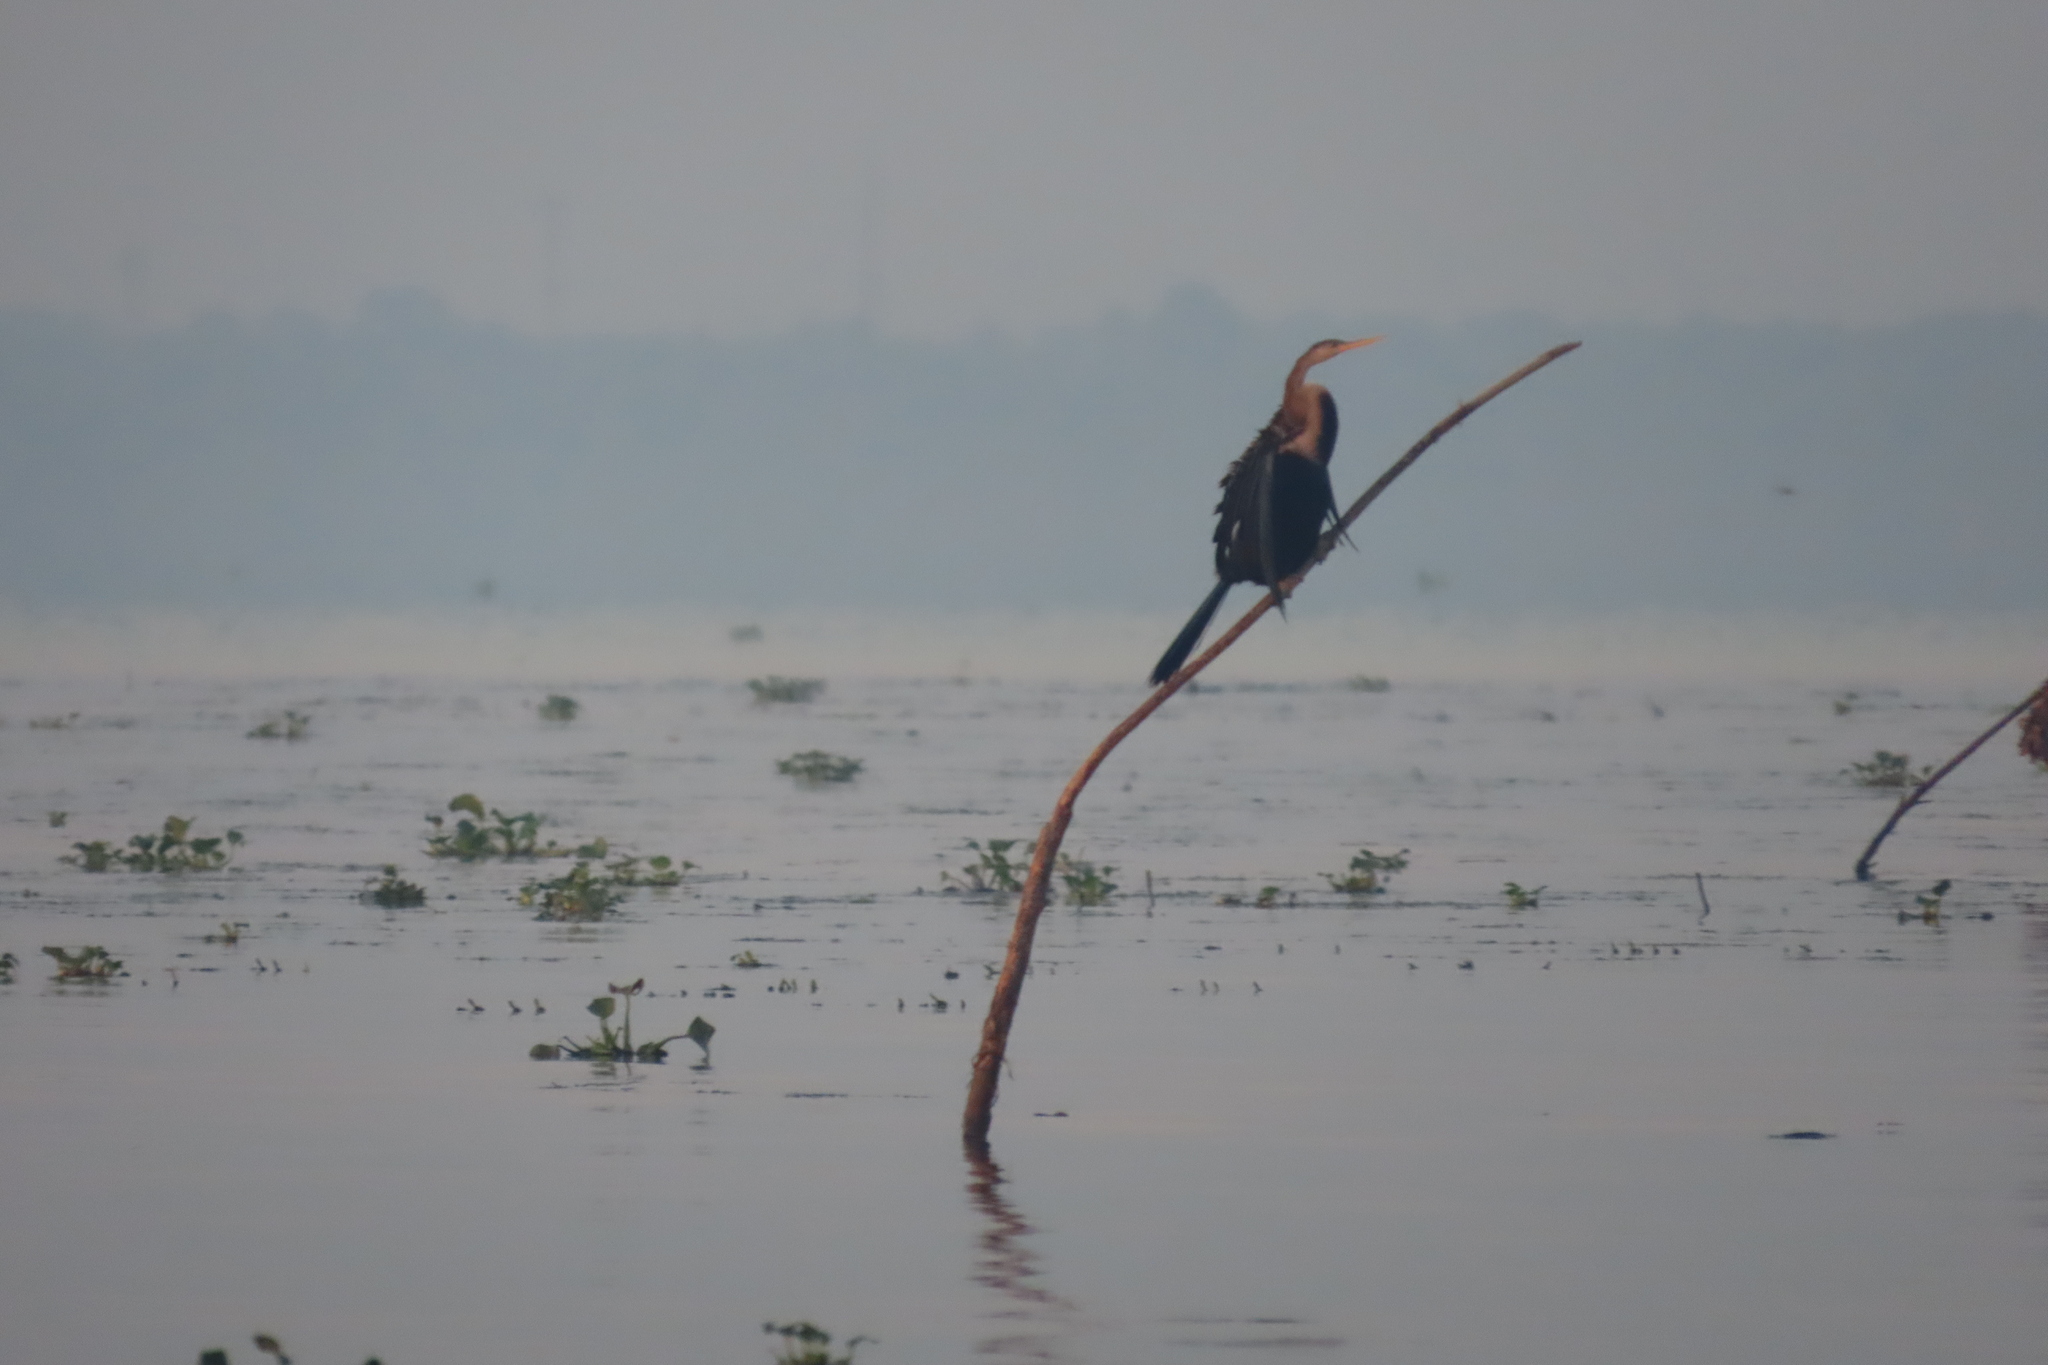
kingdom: Animalia
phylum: Chordata
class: Aves
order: Suliformes
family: Anhingidae
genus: Anhinga
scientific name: Anhinga melanogaster
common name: Oriental darter
